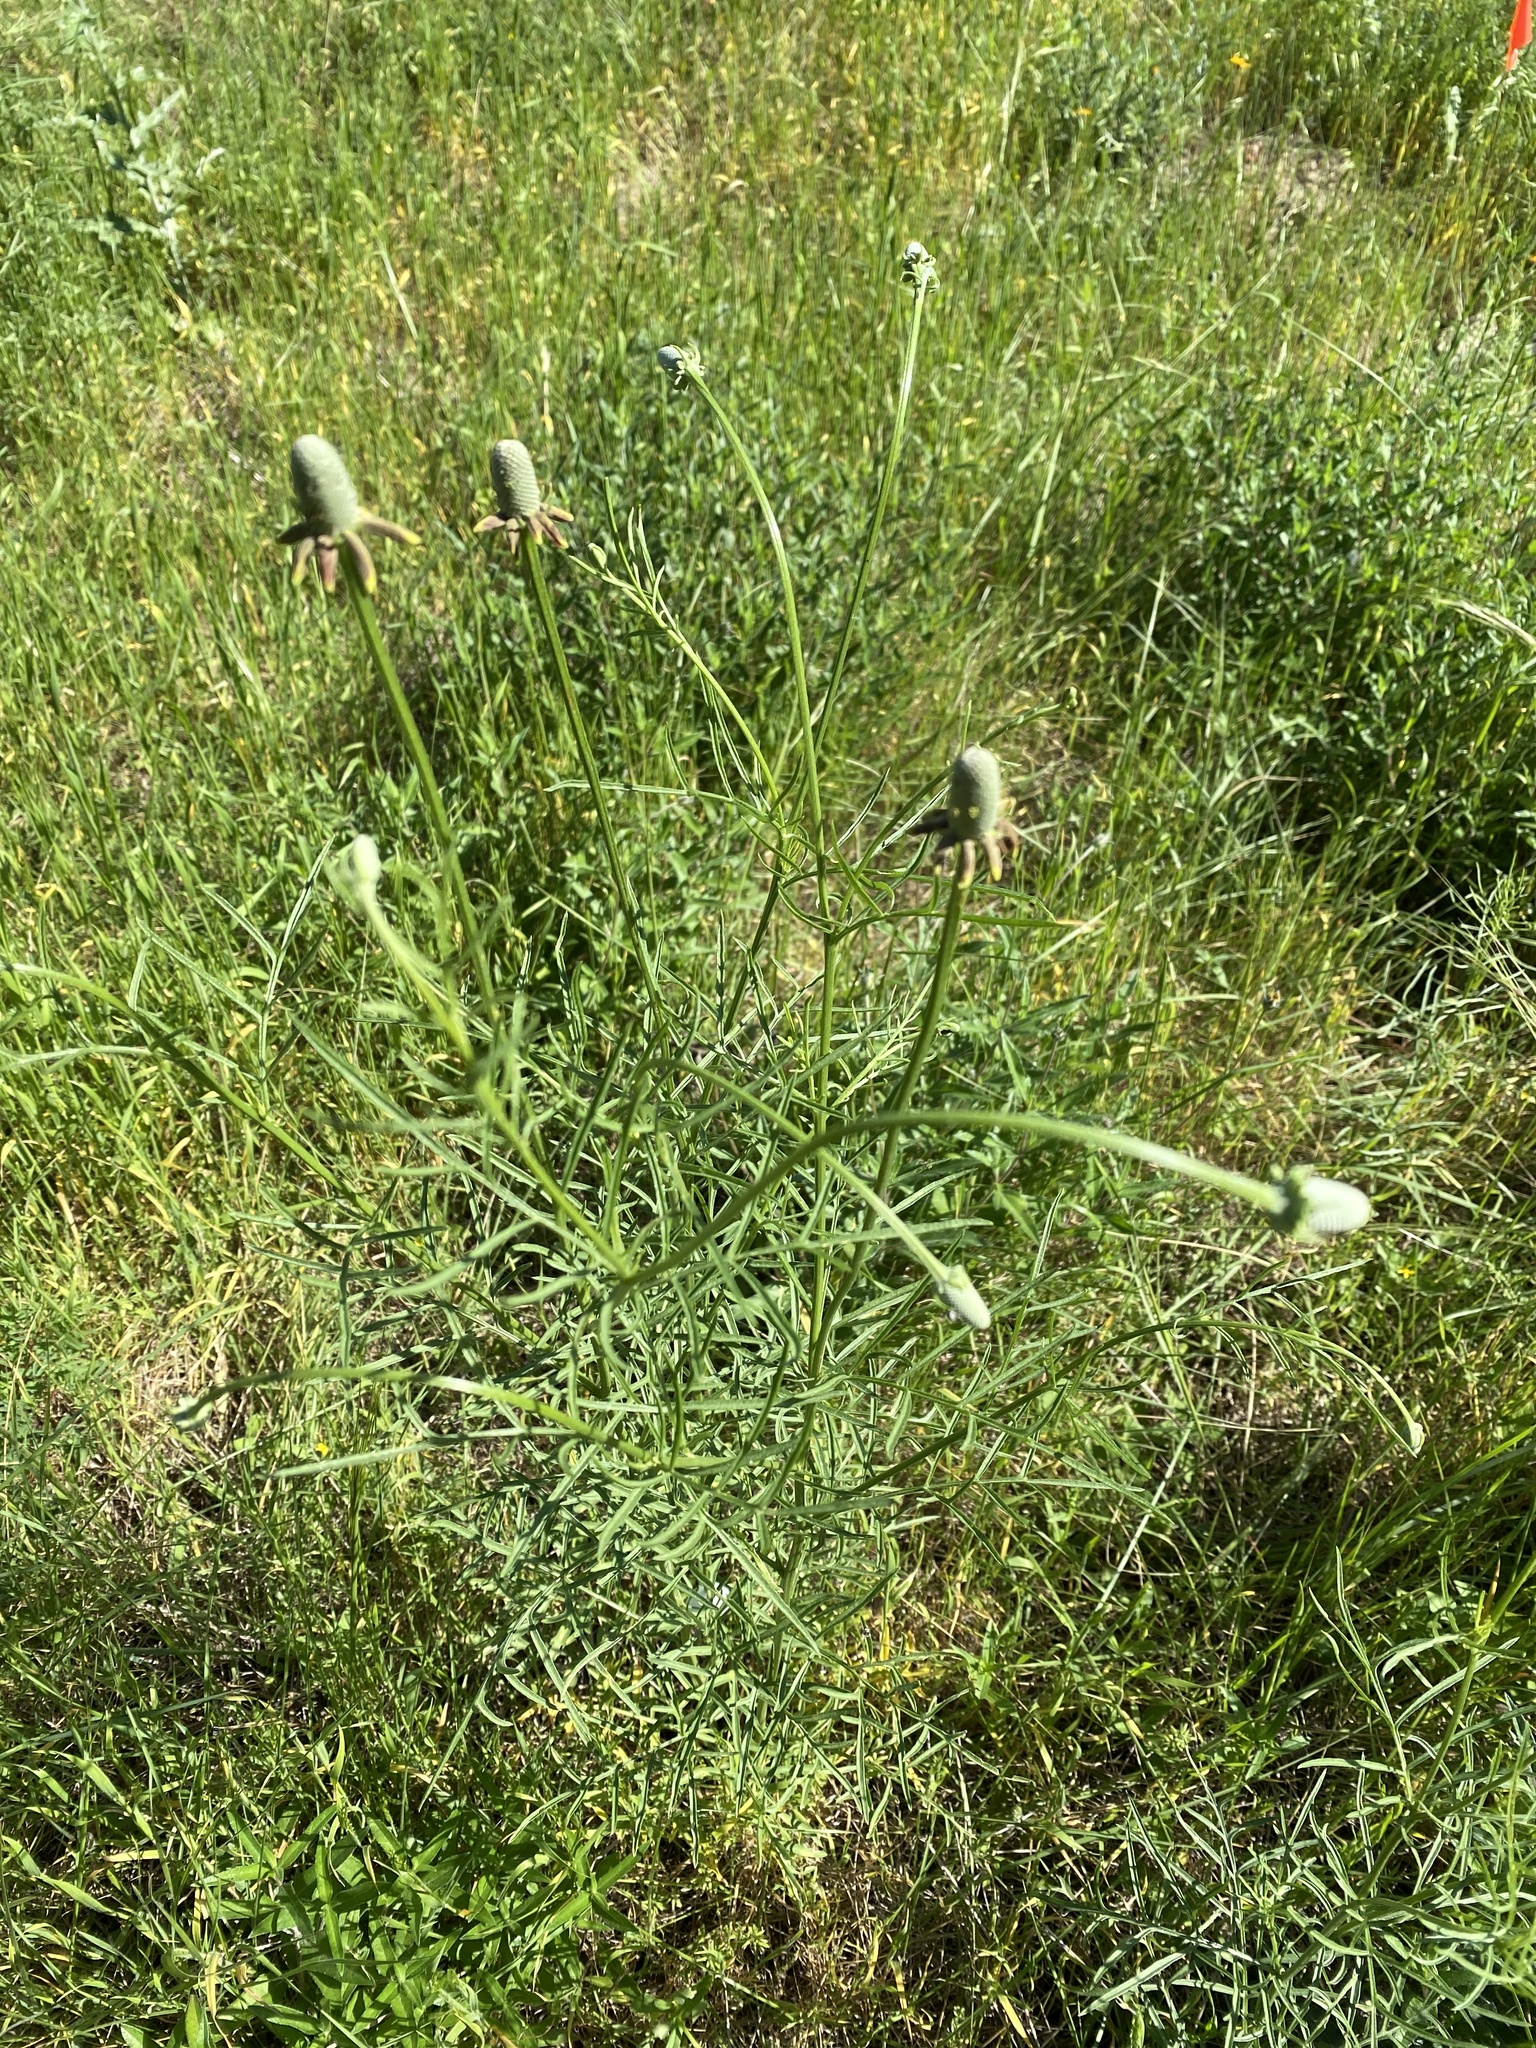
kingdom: Plantae
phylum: Tracheophyta
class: Magnoliopsida
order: Asterales
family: Asteraceae
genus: Ratibida
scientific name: Ratibida columnifera
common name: Prairie coneflower
